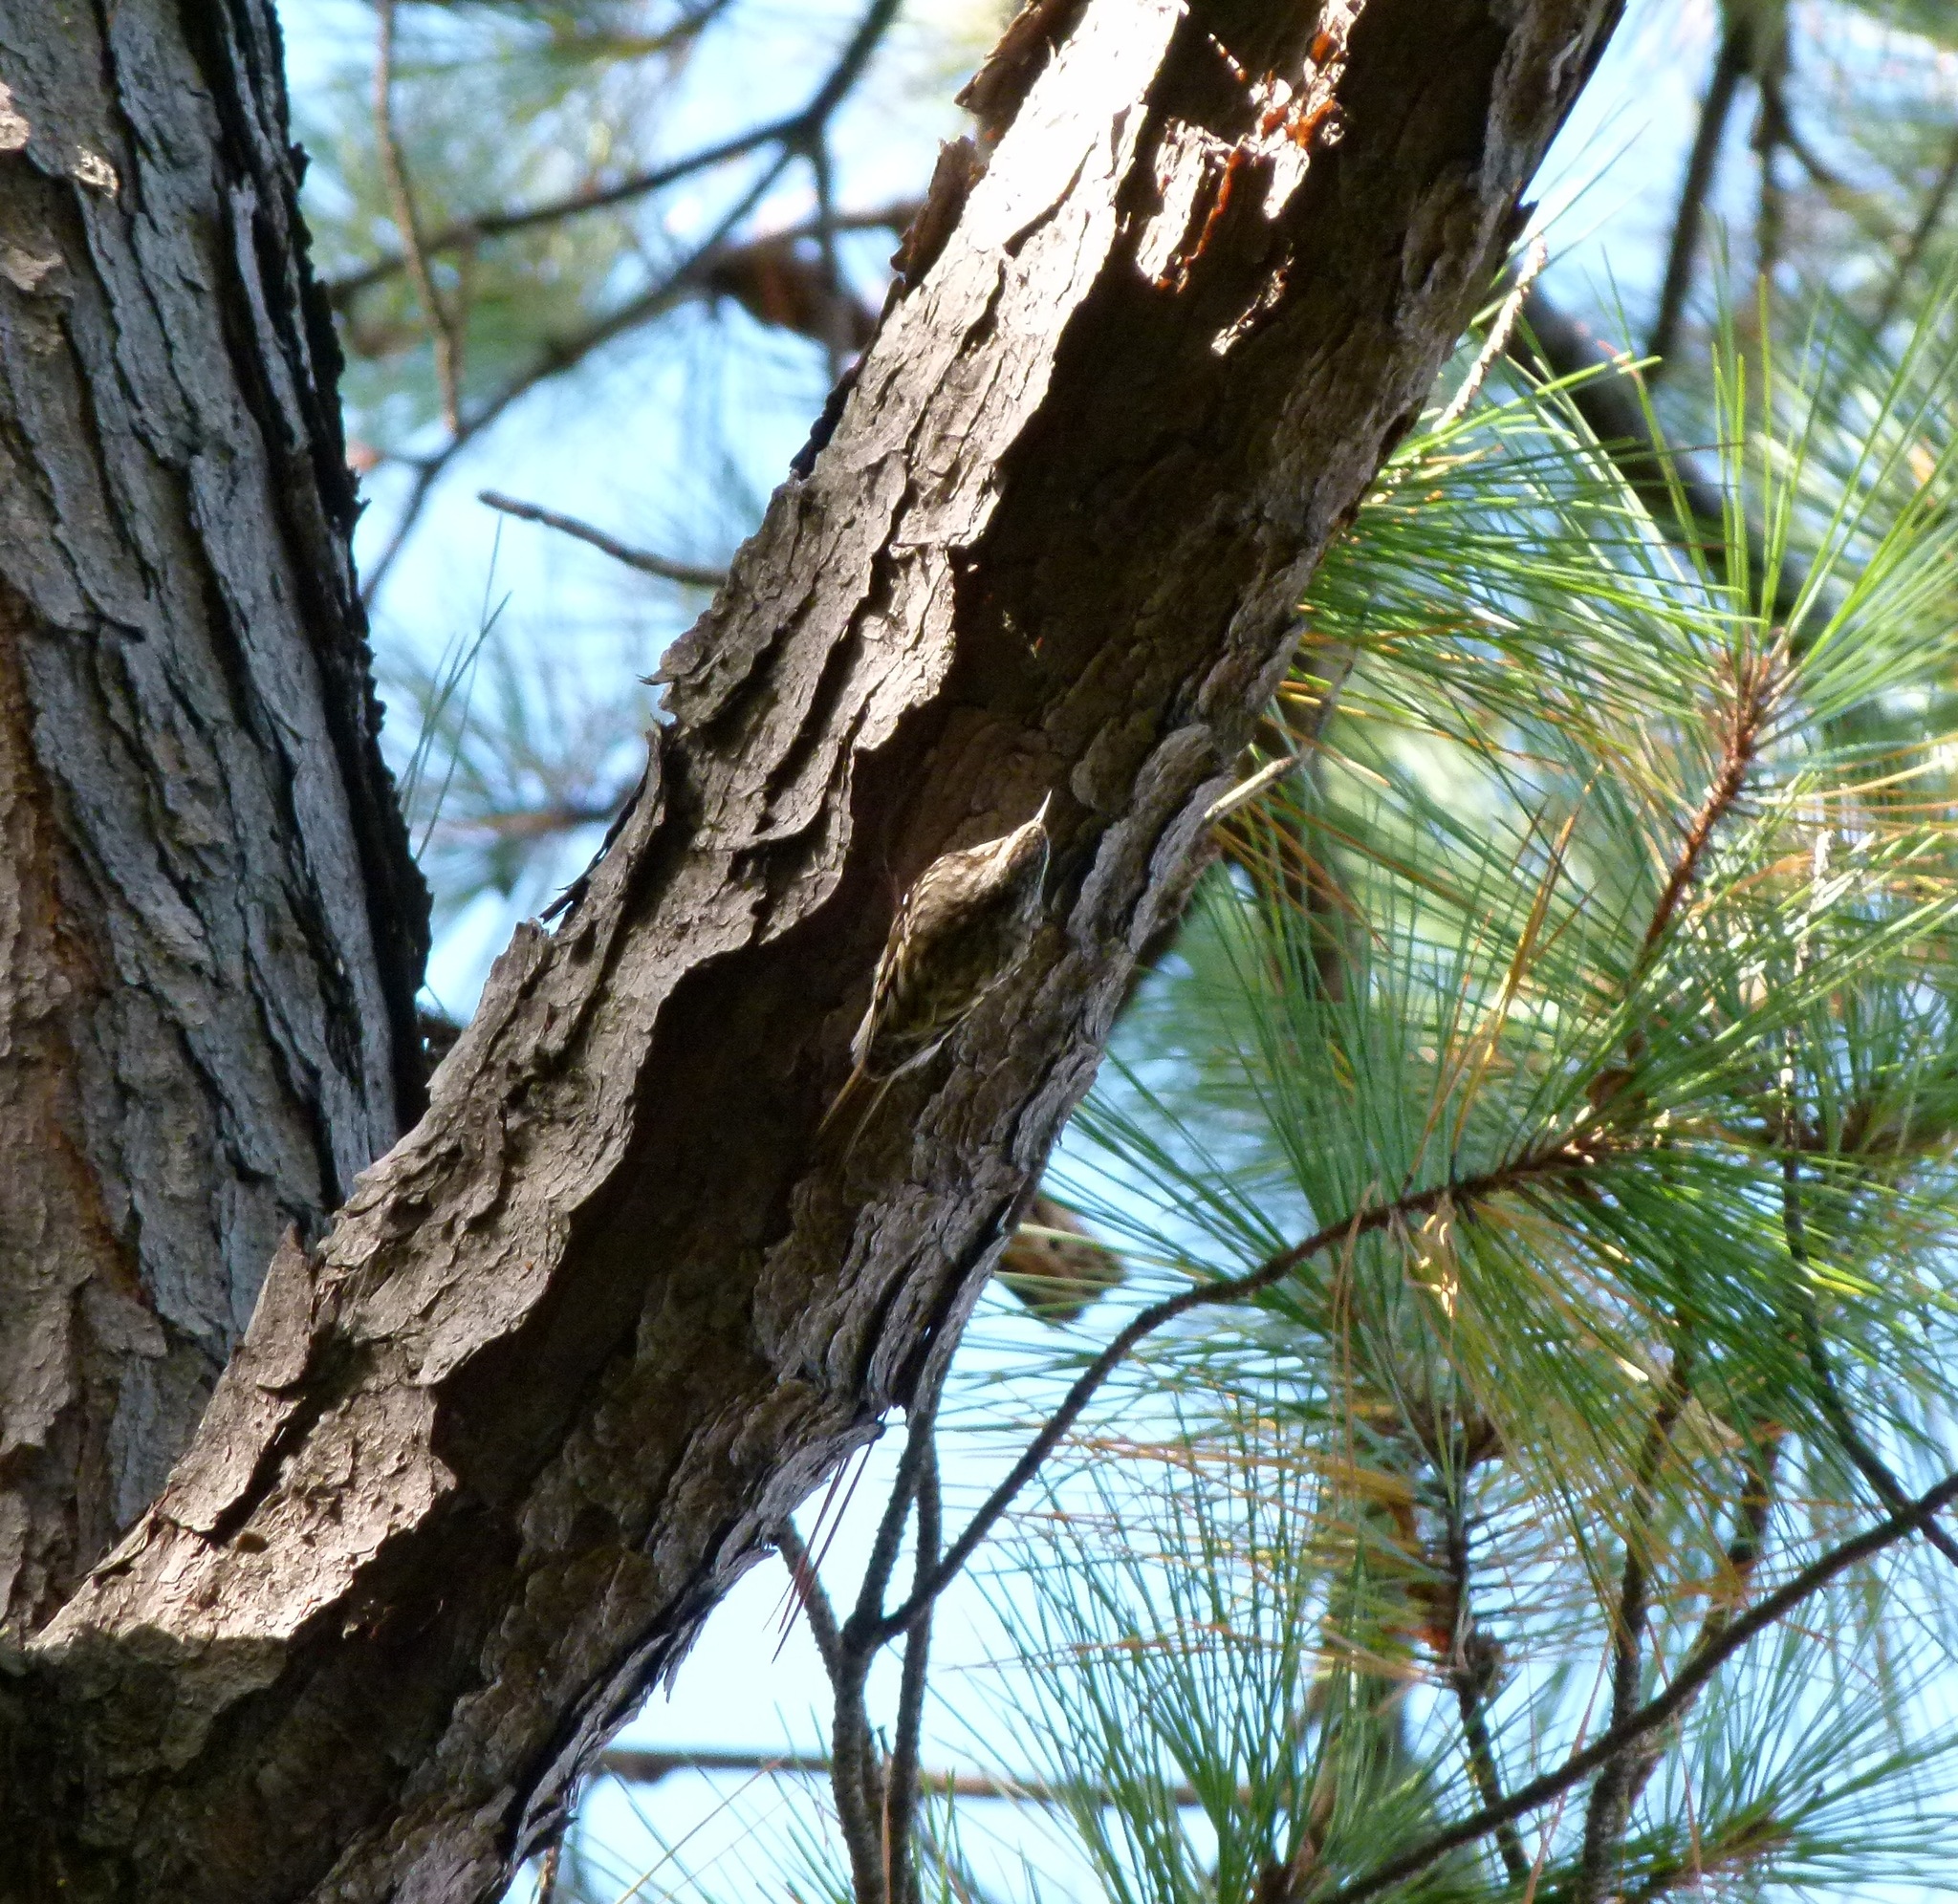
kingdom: Animalia
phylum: Chordata
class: Aves
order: Passeriformes
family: Certhiidae
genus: Certhia
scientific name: Certhia americana
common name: Brown creeper
